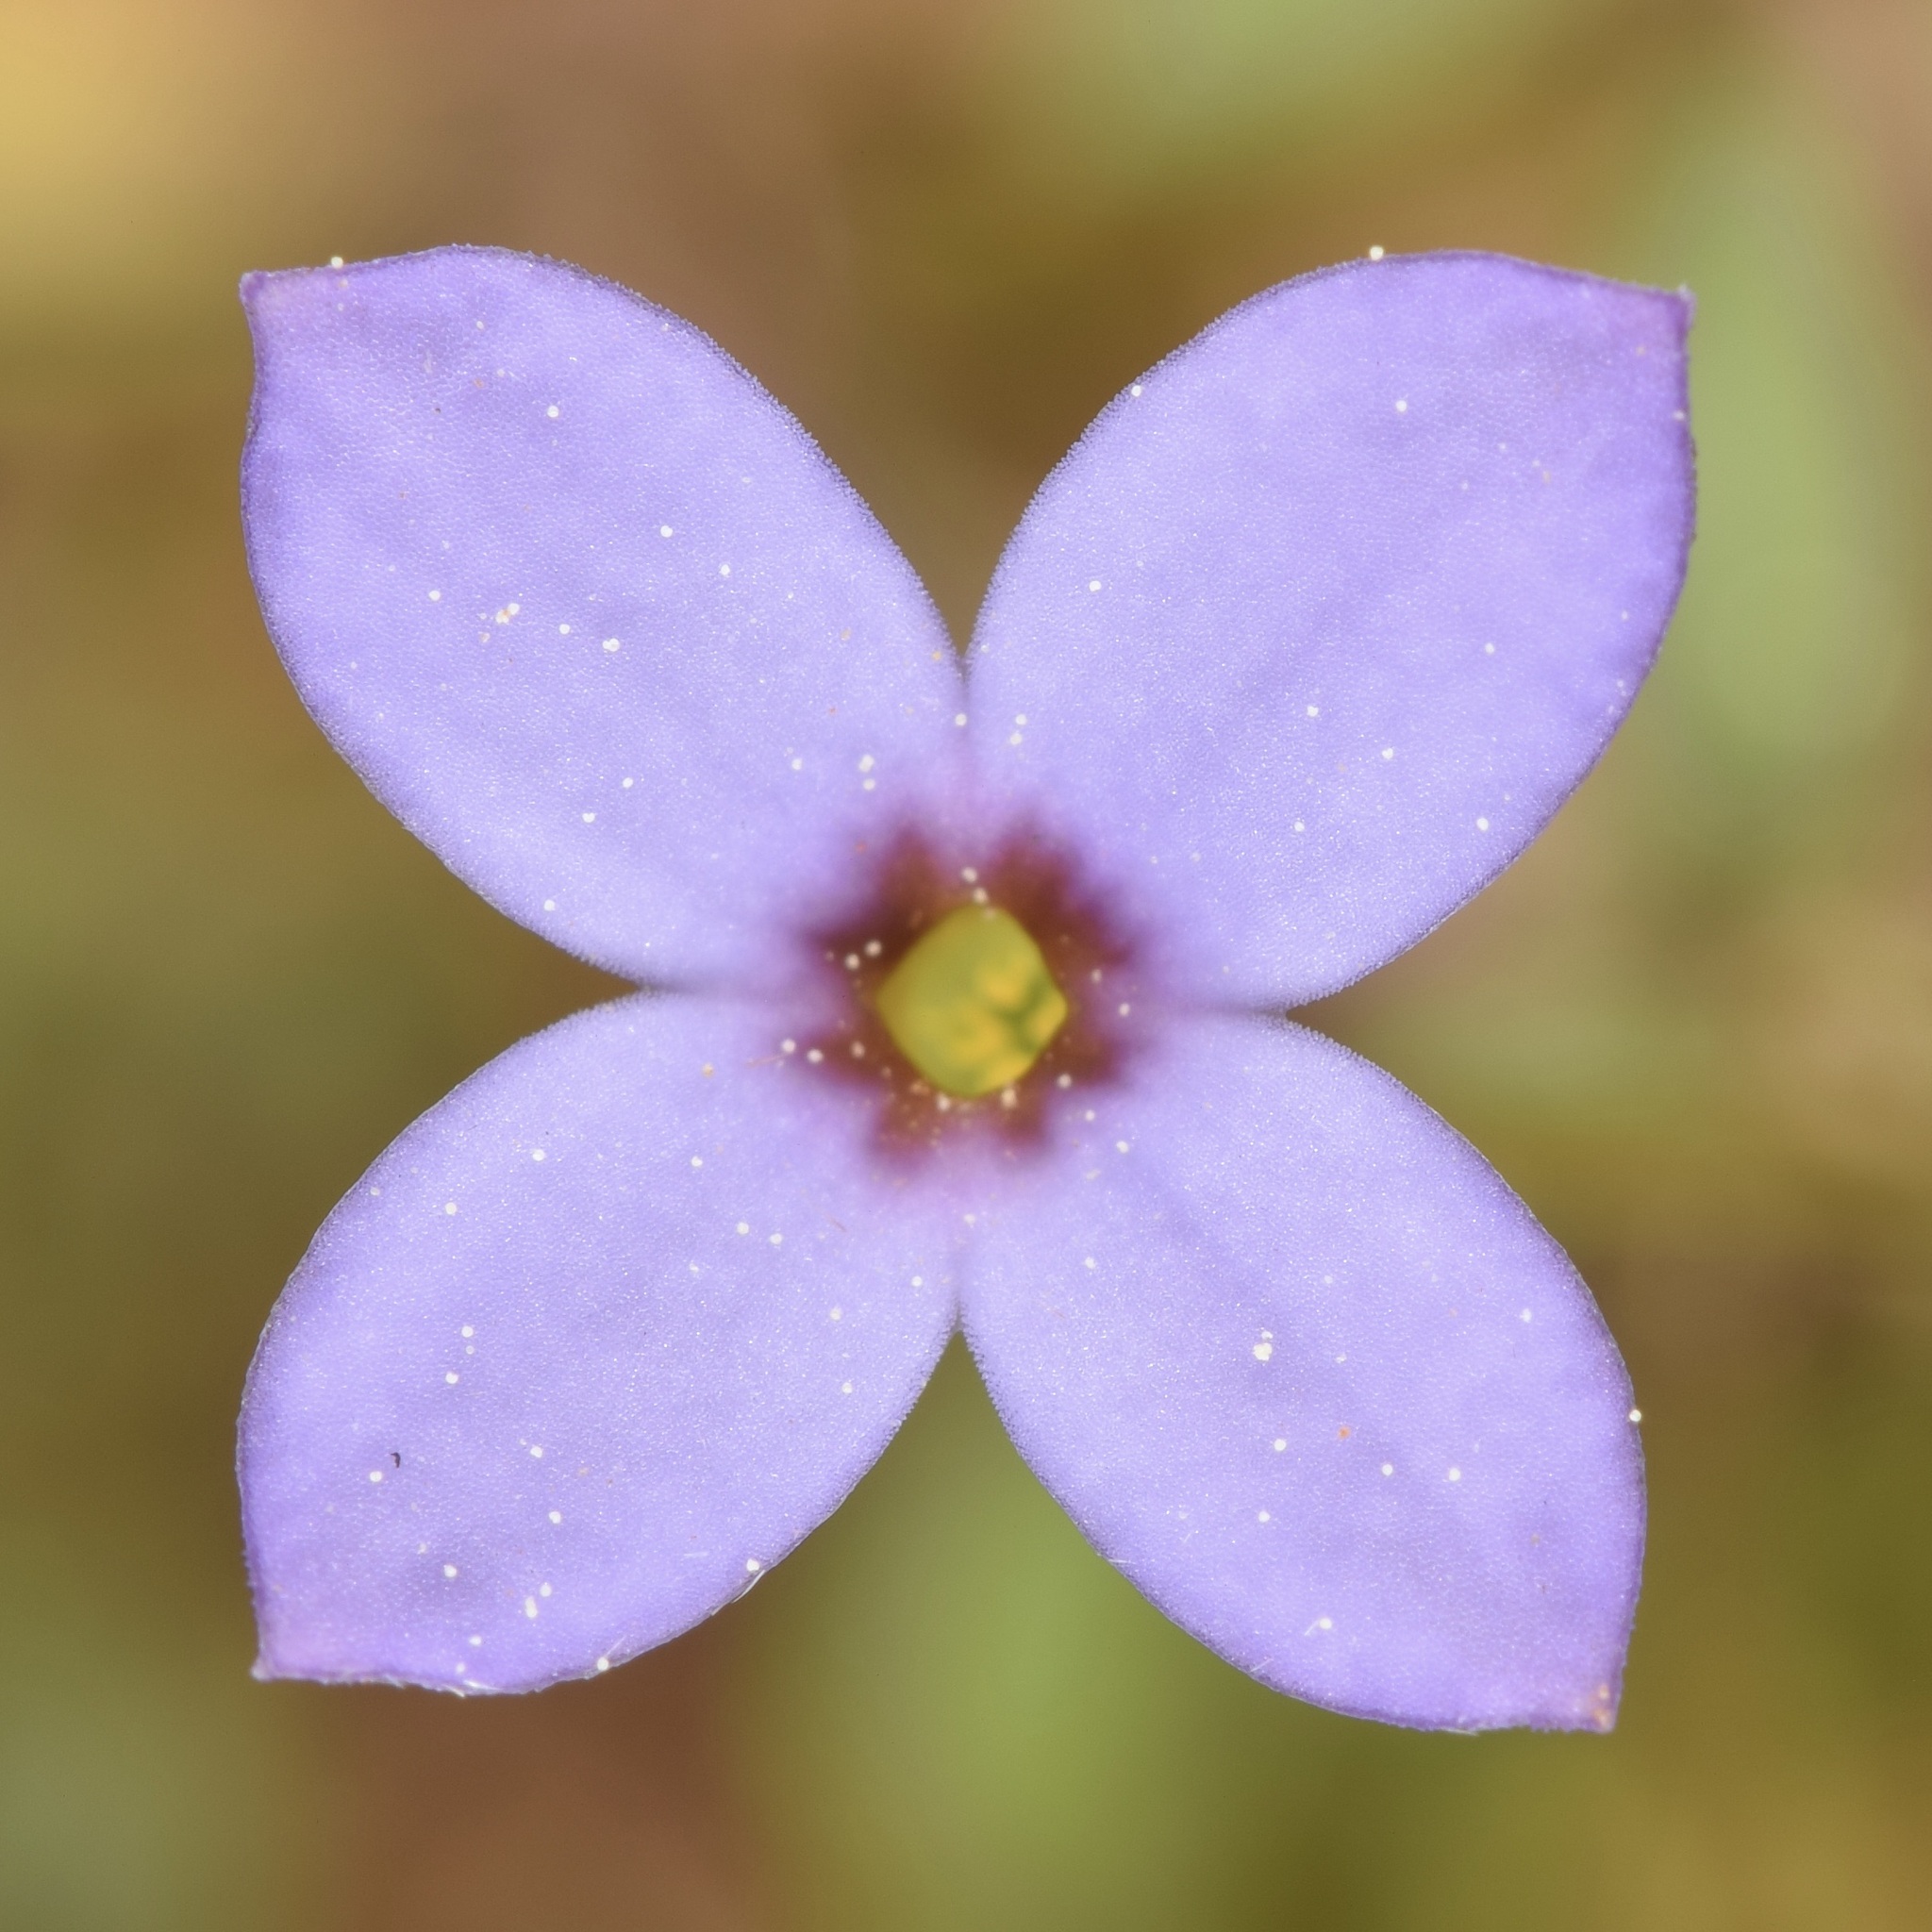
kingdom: Plantae
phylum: Tracheophyta
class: Magnoliopsida
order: Gentianales
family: Rubiaceae
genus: Houstonia
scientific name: Houstonia pusilla
